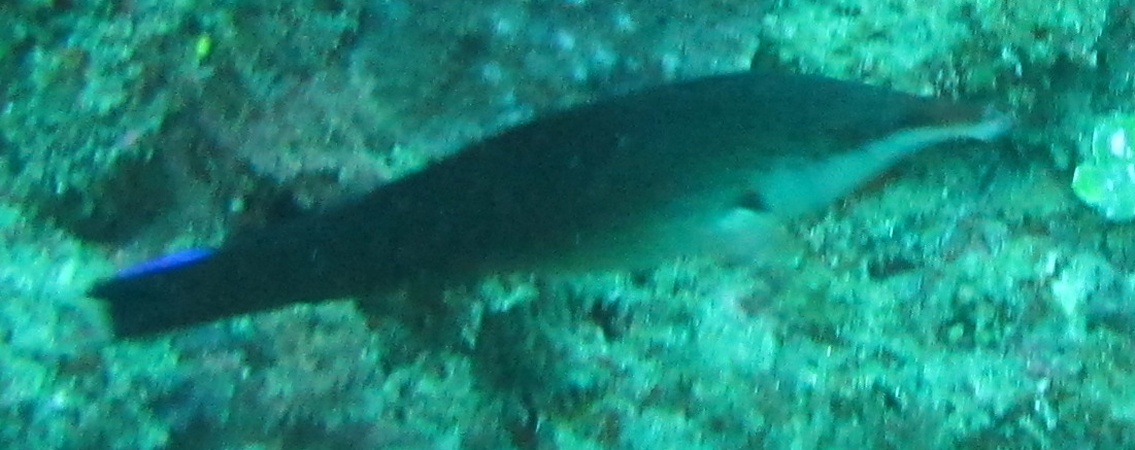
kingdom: Animalia
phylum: Chordata
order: Perciformes
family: Labridae
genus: Gomphosus
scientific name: Gomphosus caeruleus
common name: Bird wrasse
